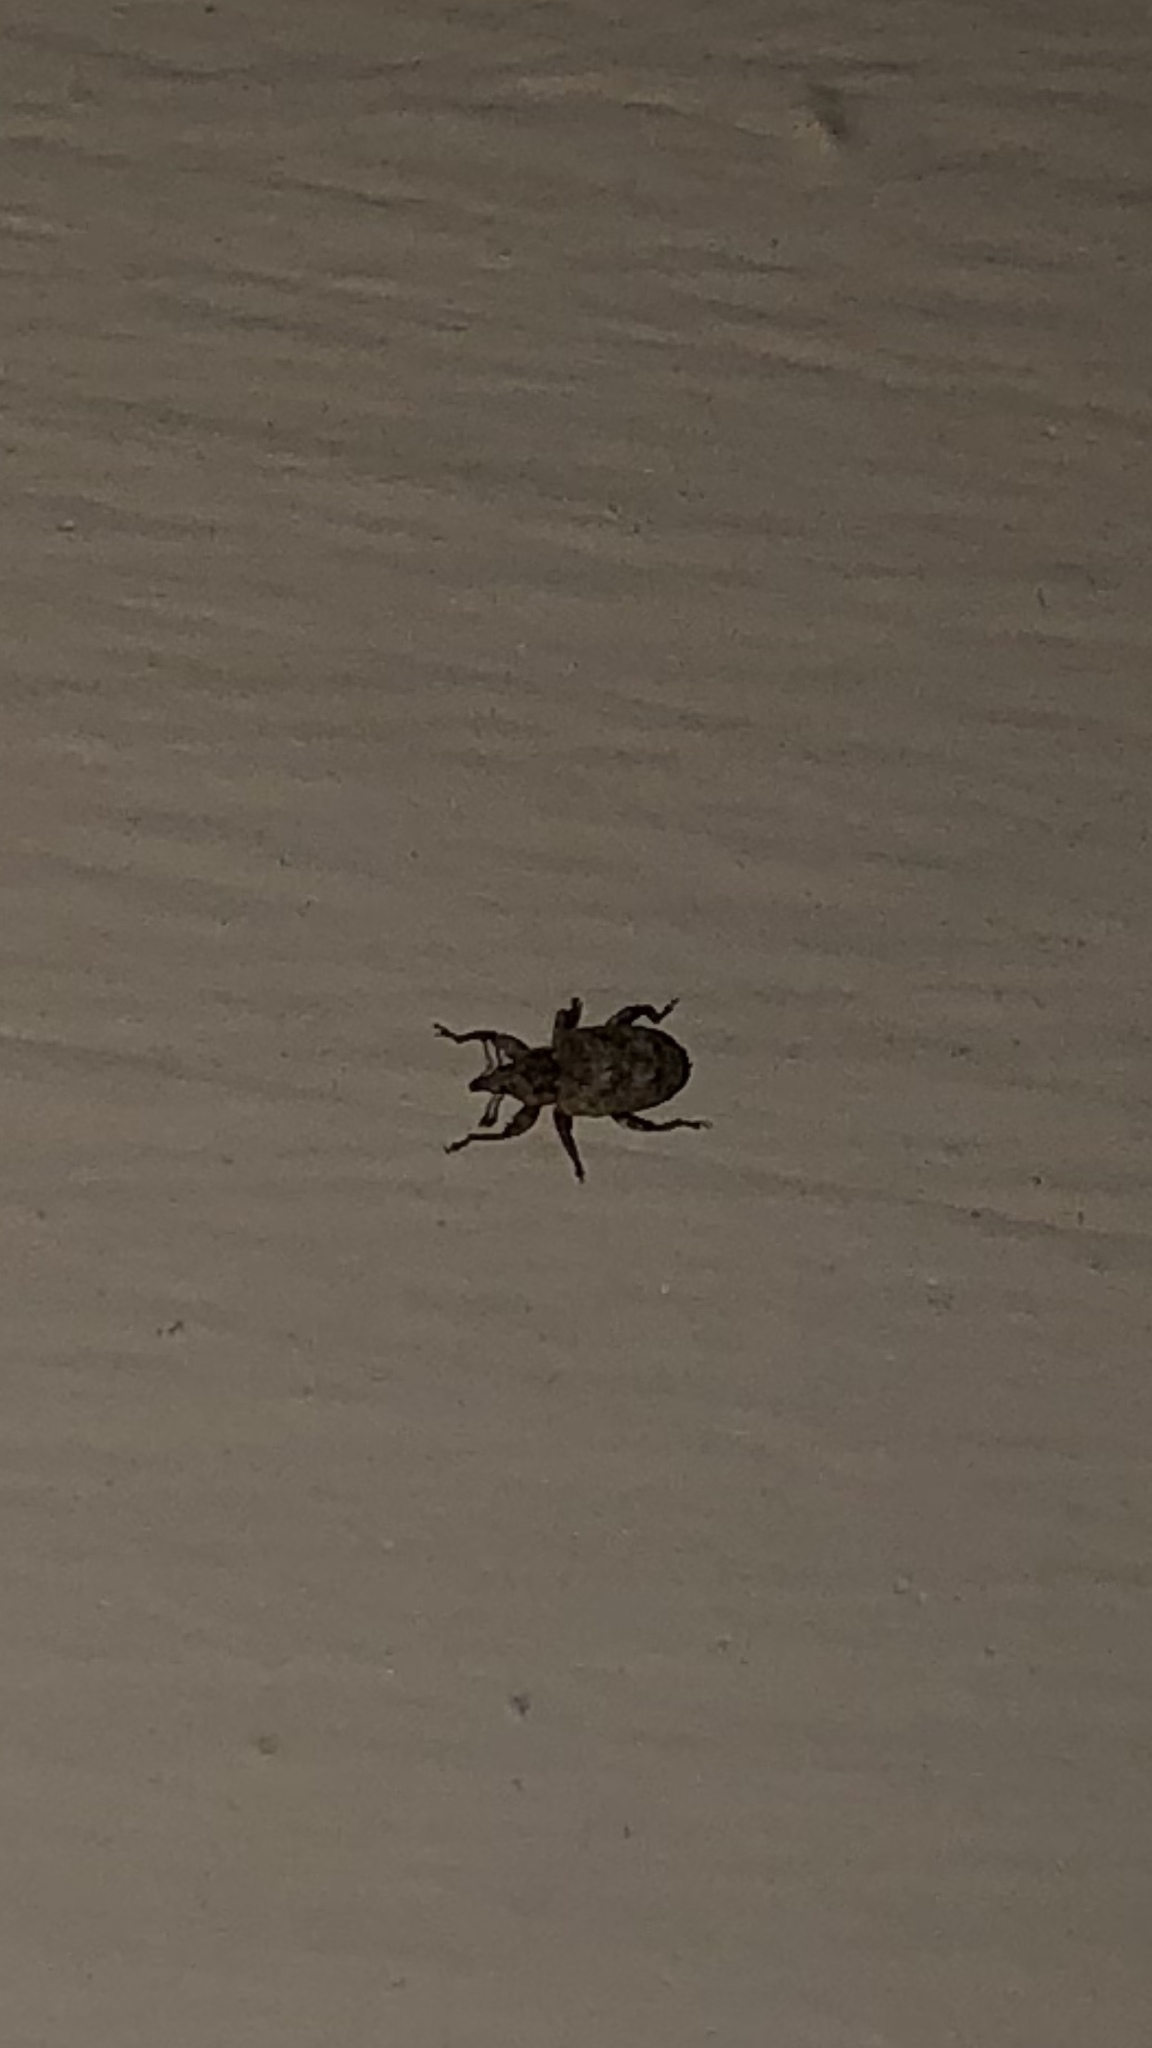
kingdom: Animalia
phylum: Arthropoda
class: Insecta
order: Coleoptera
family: Curculionidae
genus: Conotrachelus
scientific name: Conotrachelus recessus
